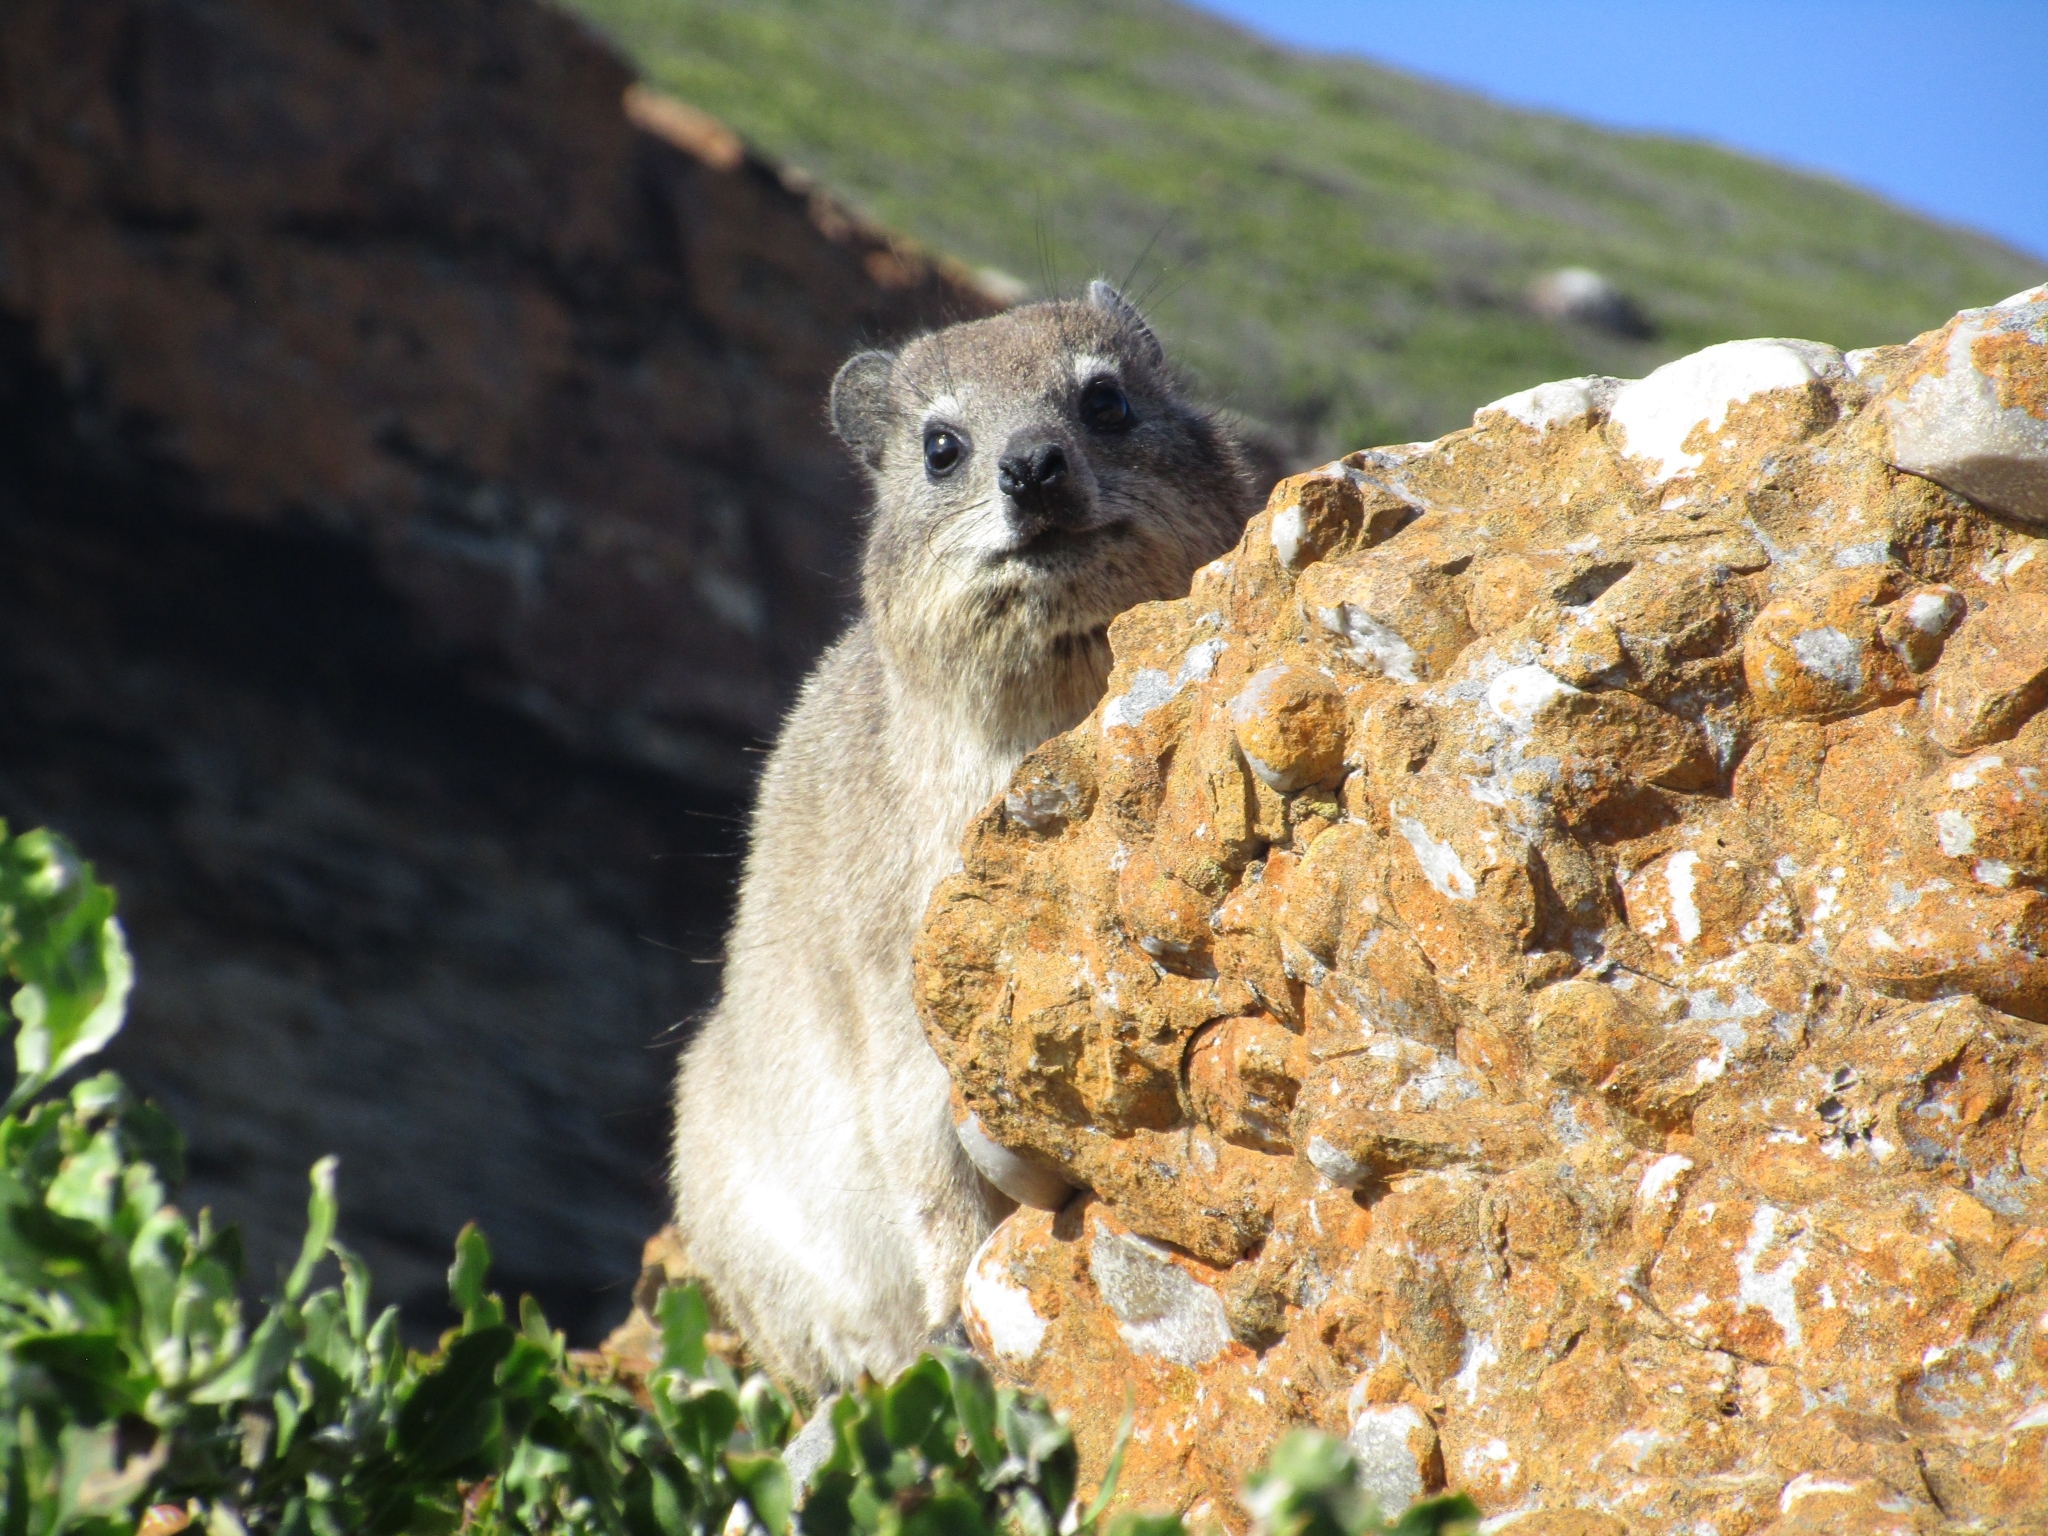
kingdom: Animalia
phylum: Chordata
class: Mammalia
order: Hyracoidea
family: Procaviidae
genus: Procavia
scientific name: Procavia capensis
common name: Rock hyrax
